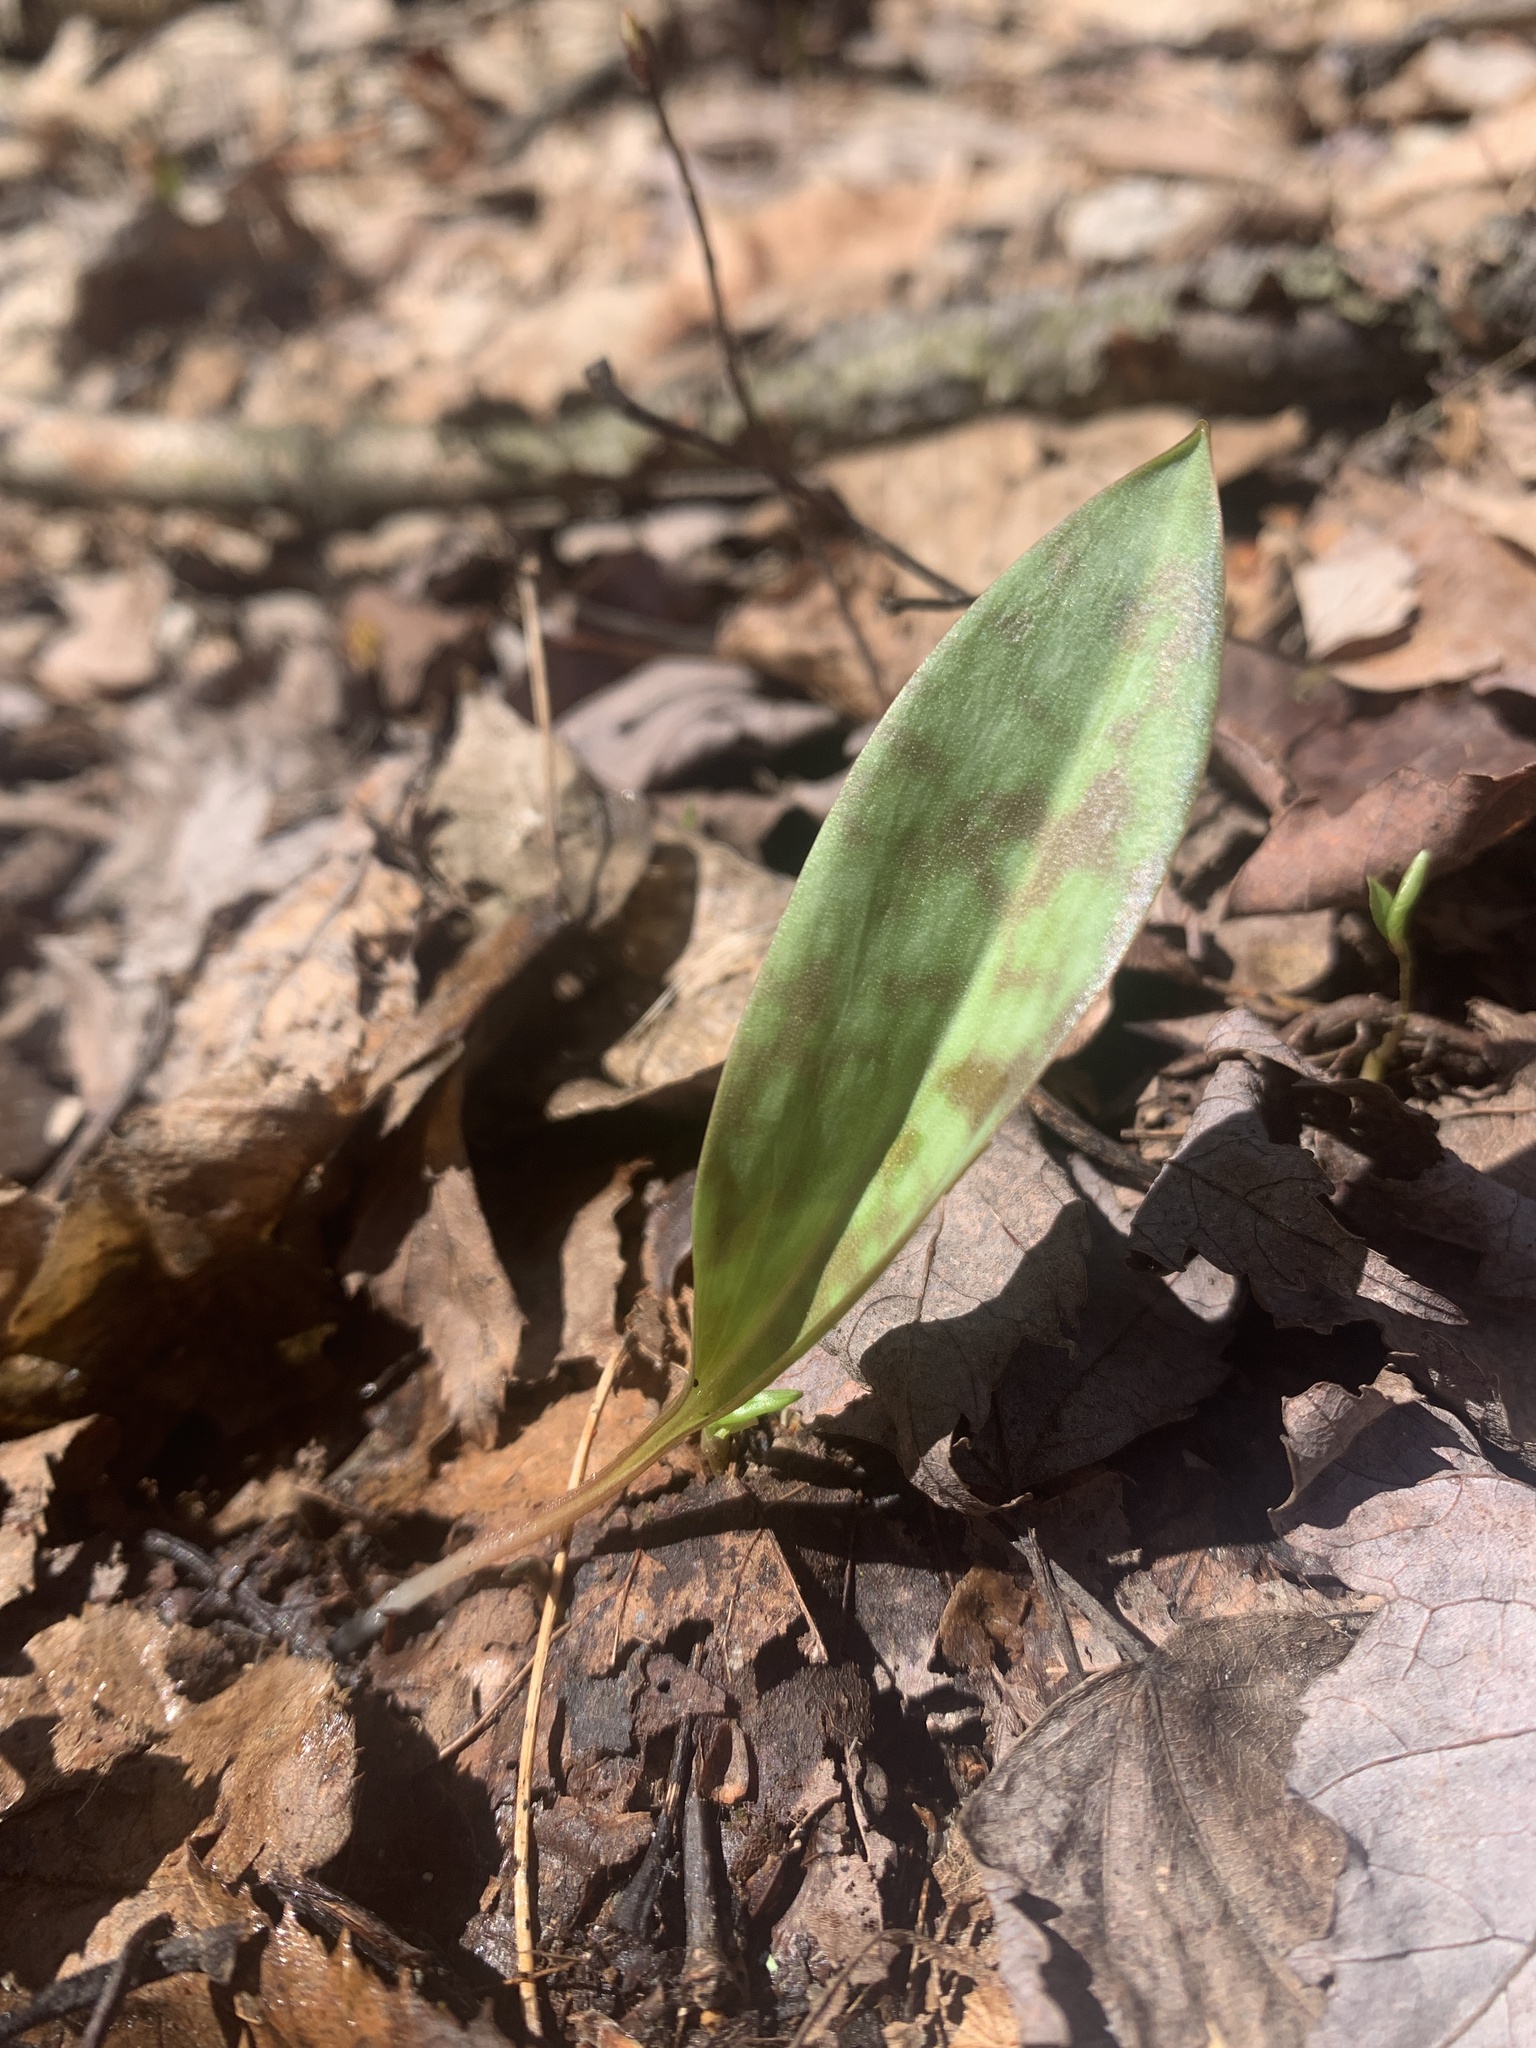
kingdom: Plantae
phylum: Tracheophyta
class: Liliopsida
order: Liliales
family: Liliaceae
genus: Erythronium
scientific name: Erythronium americanum
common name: Yellow adder's-tongue
